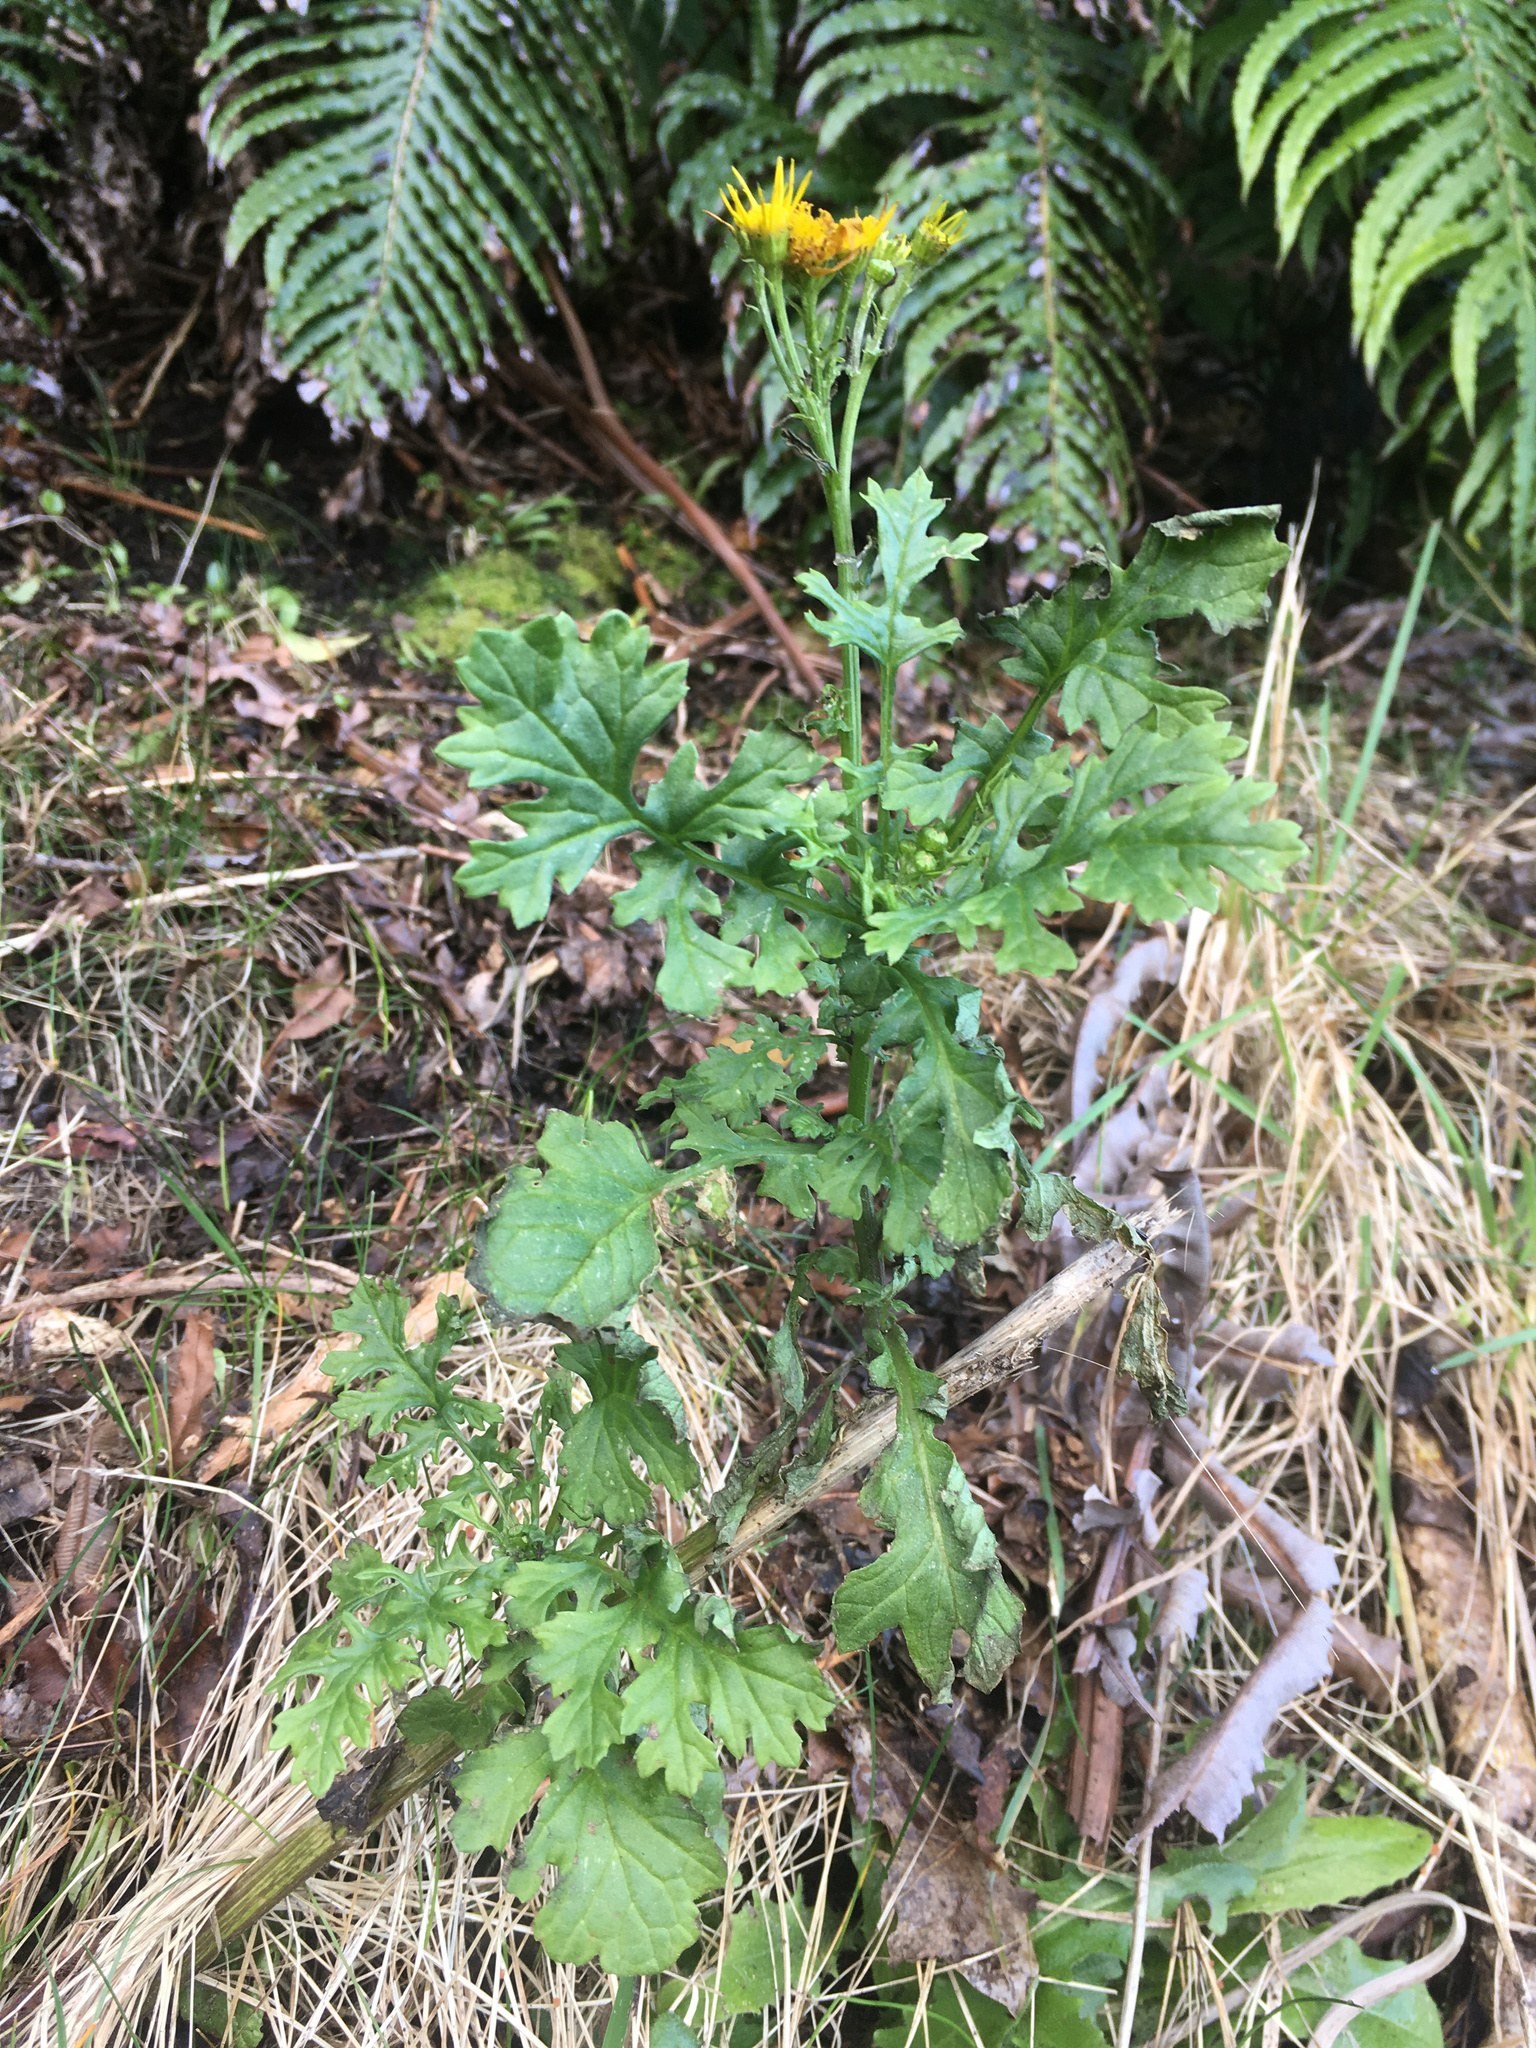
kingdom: Plantae
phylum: Tracheophyta
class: Magnoliopsida
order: Asterales
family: Asteraceae
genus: Jacobaea
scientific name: Jacobaea vulgaris
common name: Stinking willie
